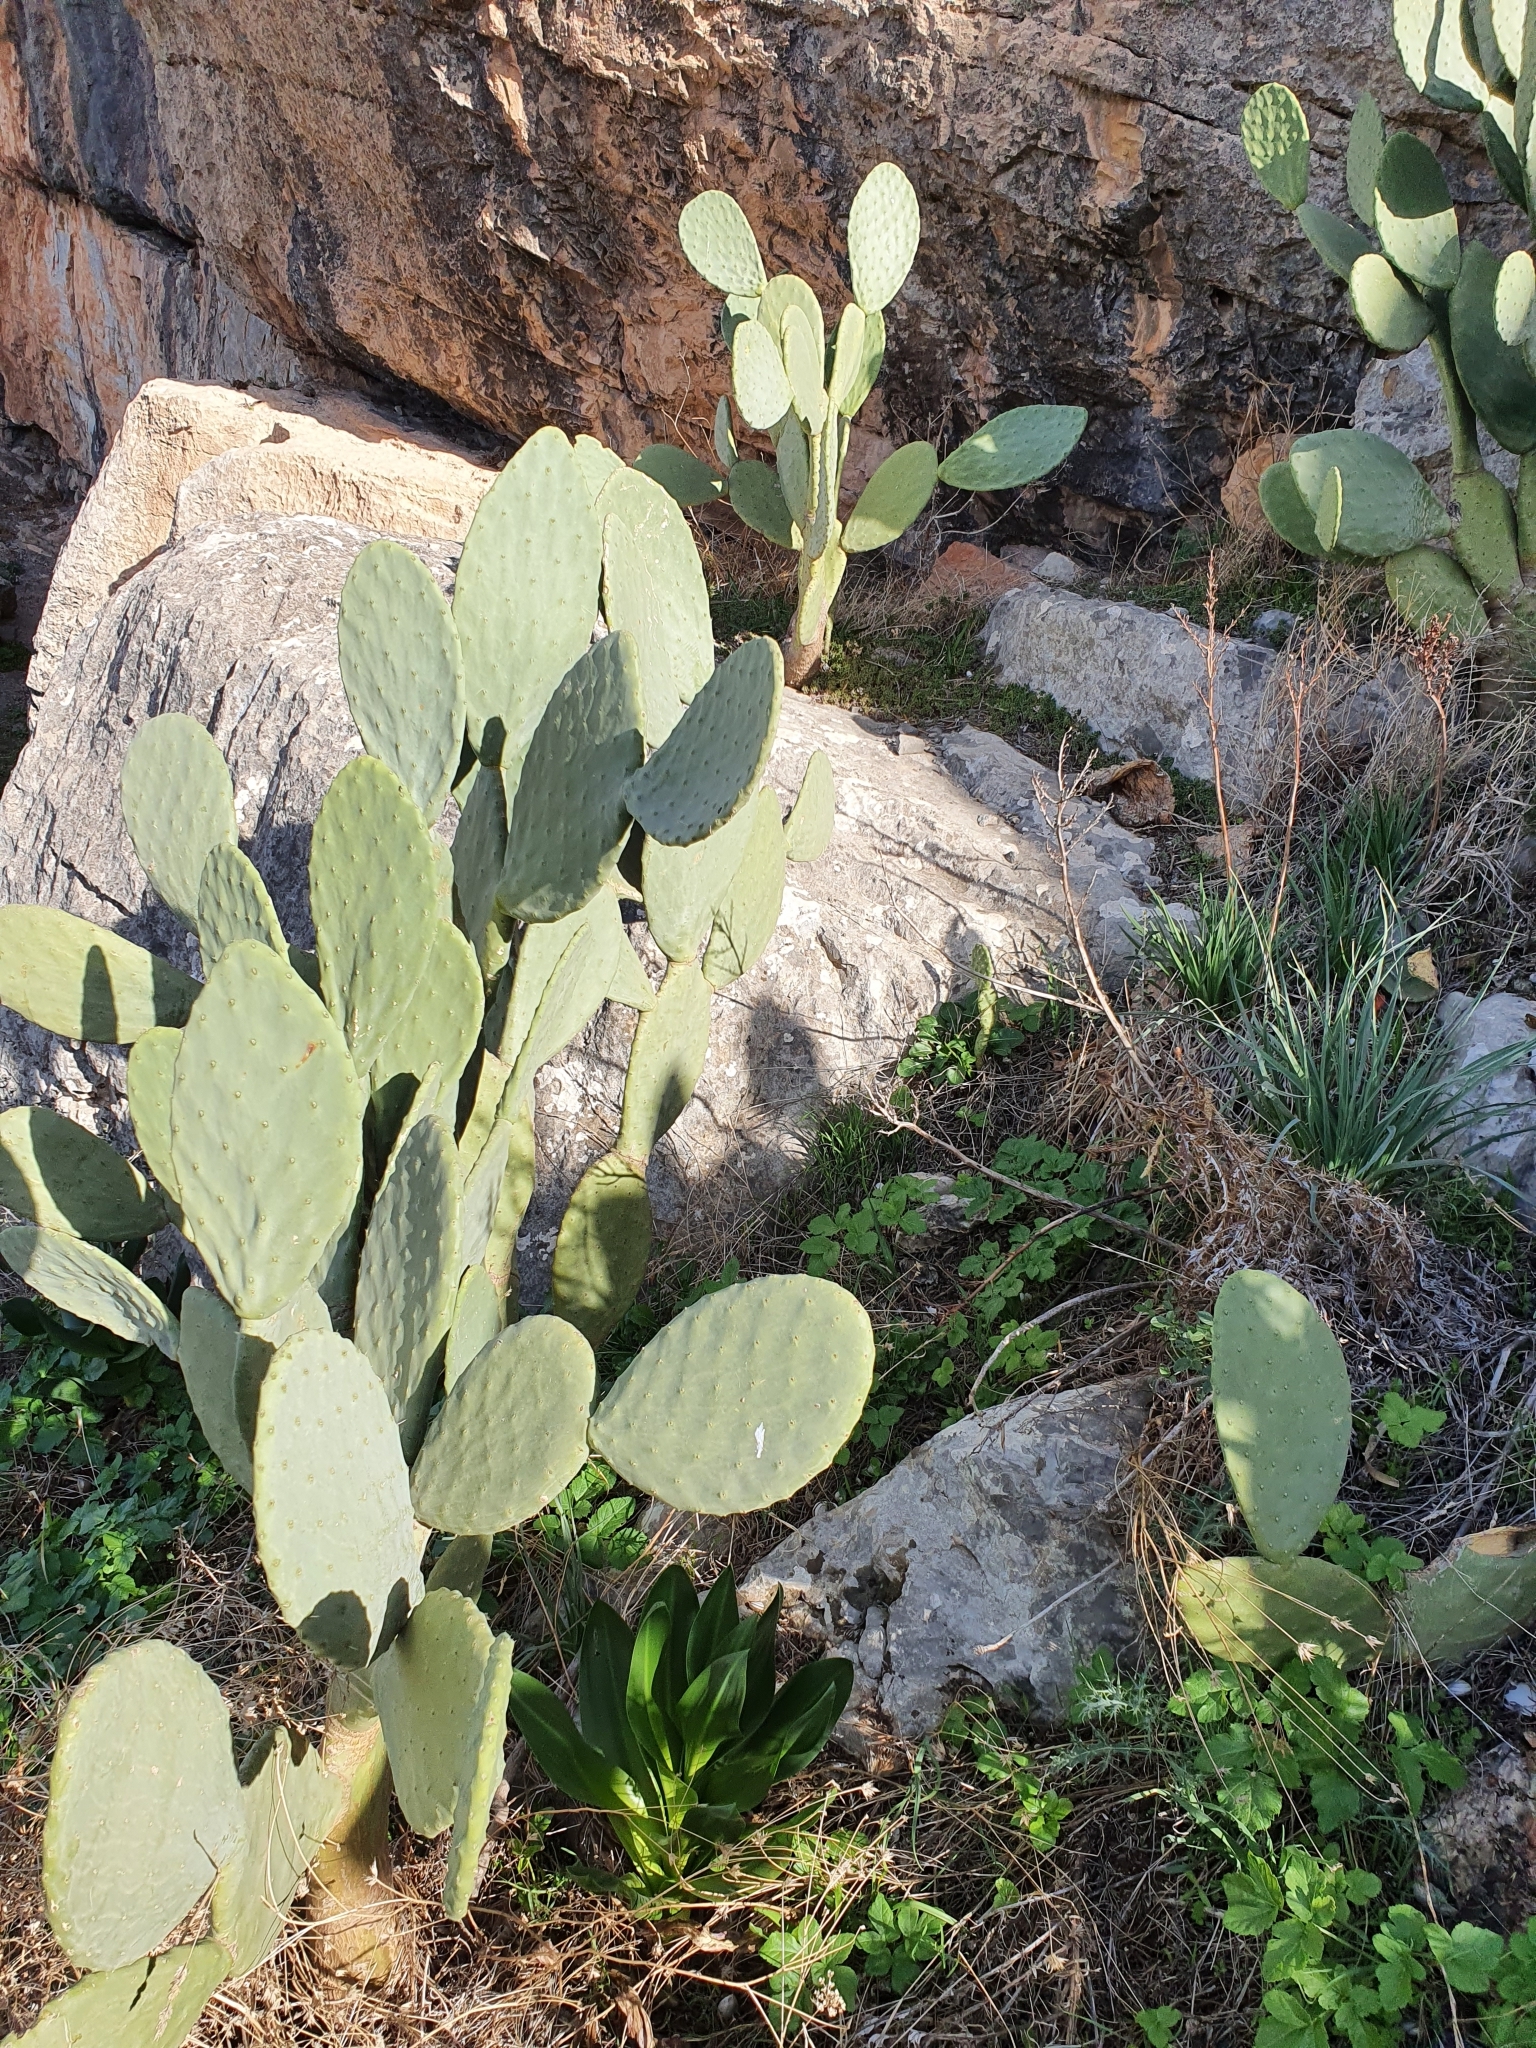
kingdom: Plantae
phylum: Tracheophyta
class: Magnoliopsida
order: Caryophyllales
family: Cactaceae
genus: Opuntia
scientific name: Opuntia ficus-indica
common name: Barbary fig
